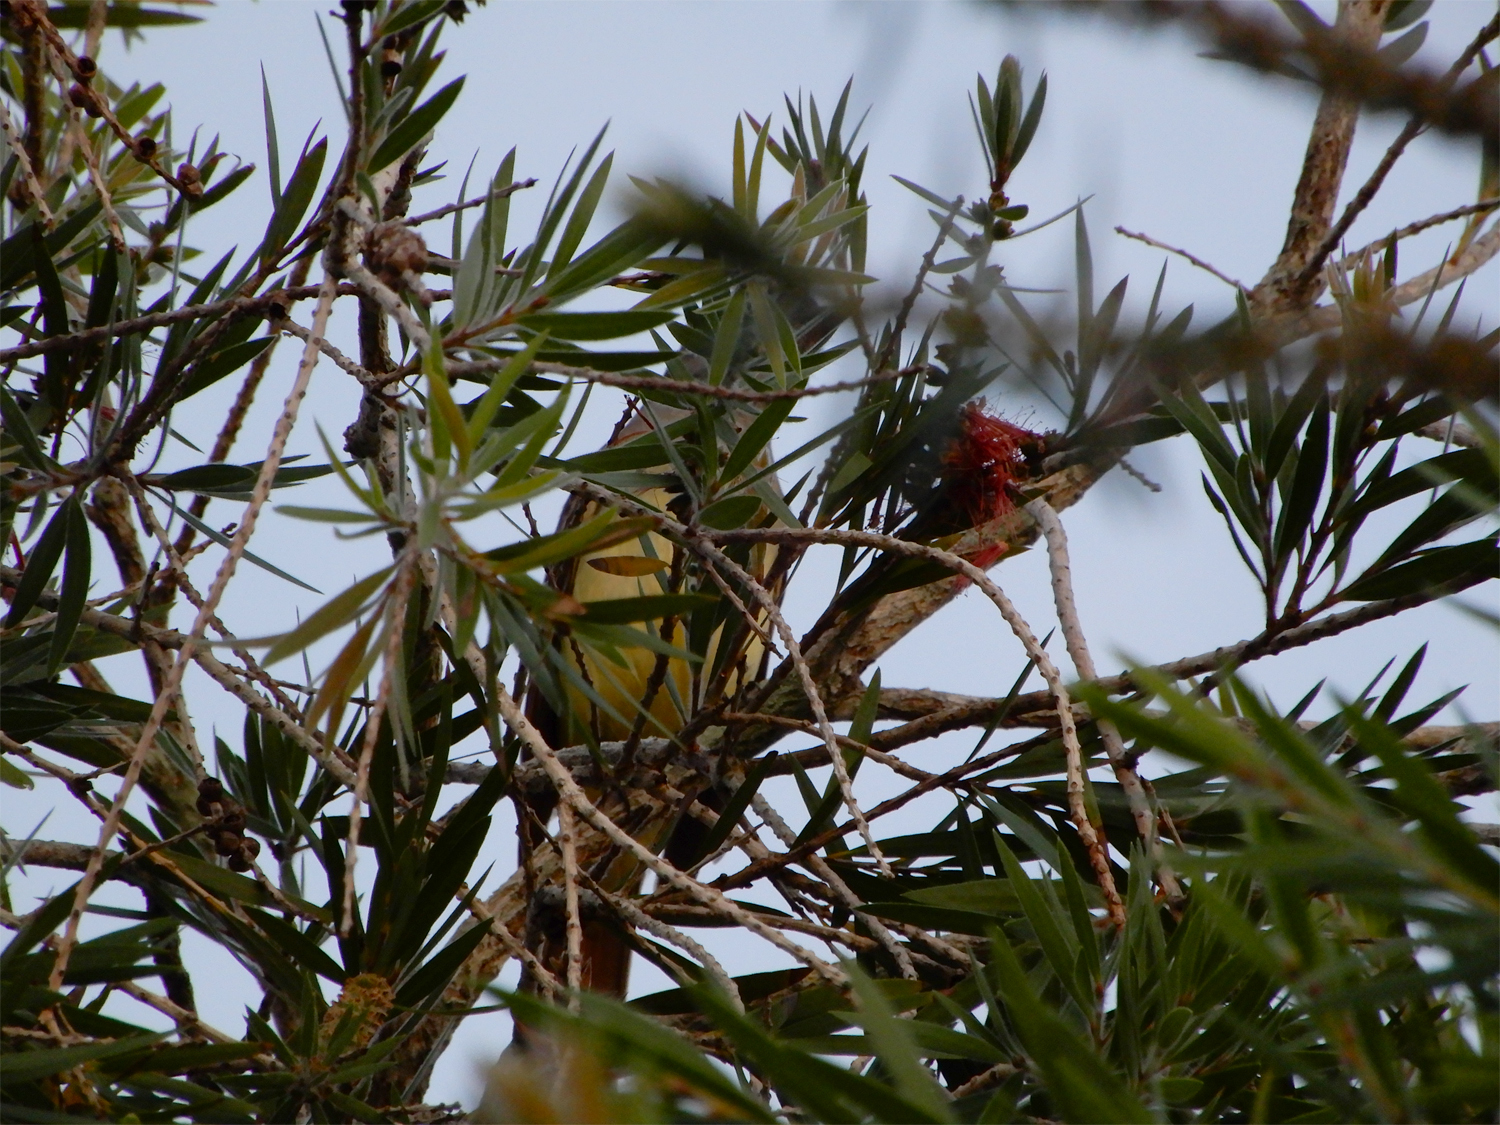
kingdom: Animalia
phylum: Chordata
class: Aves
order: Passeriformes
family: Tyrannidae
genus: Myiarchus
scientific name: Myiarchus crinitus
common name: Great crested flycatcher
